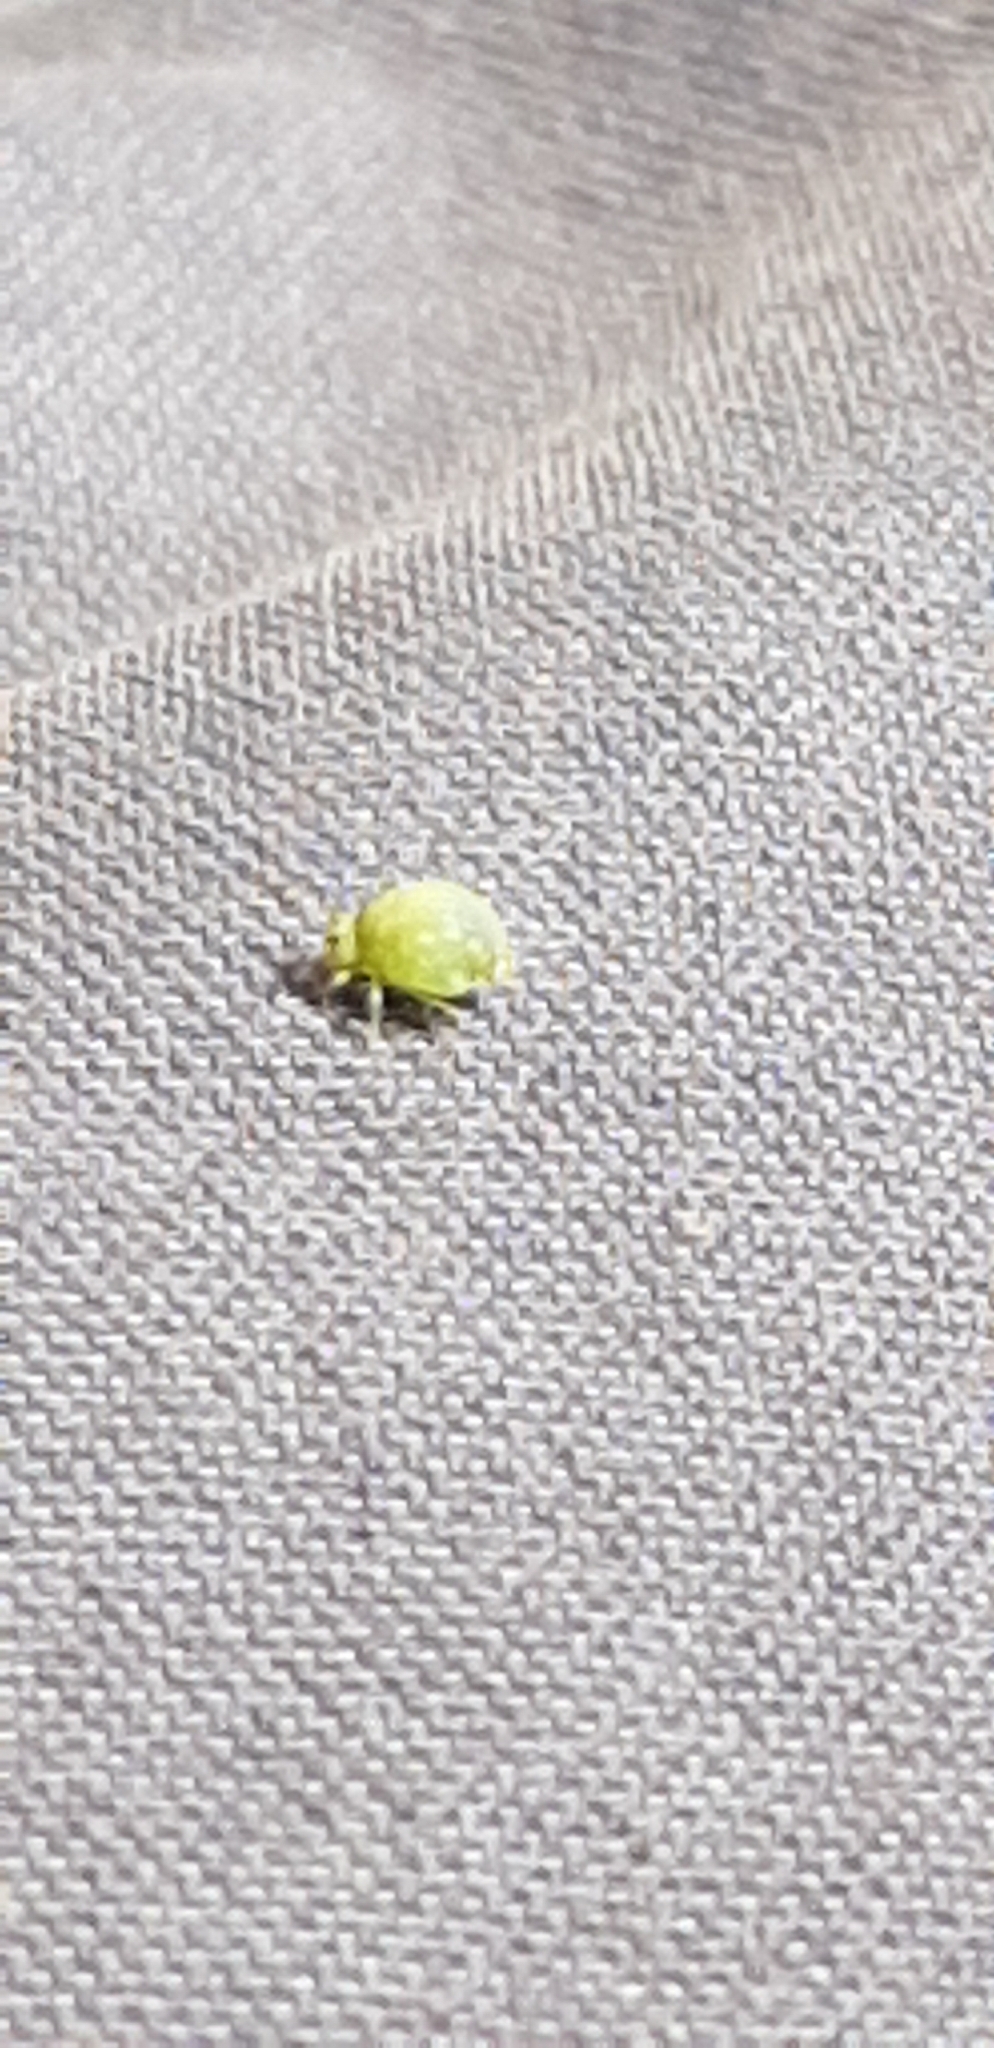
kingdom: Animalia
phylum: Arthropoda
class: Collembola
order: Symphypleona
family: Sminthuridae
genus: Sminthurus
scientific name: Sminthurus viridis
